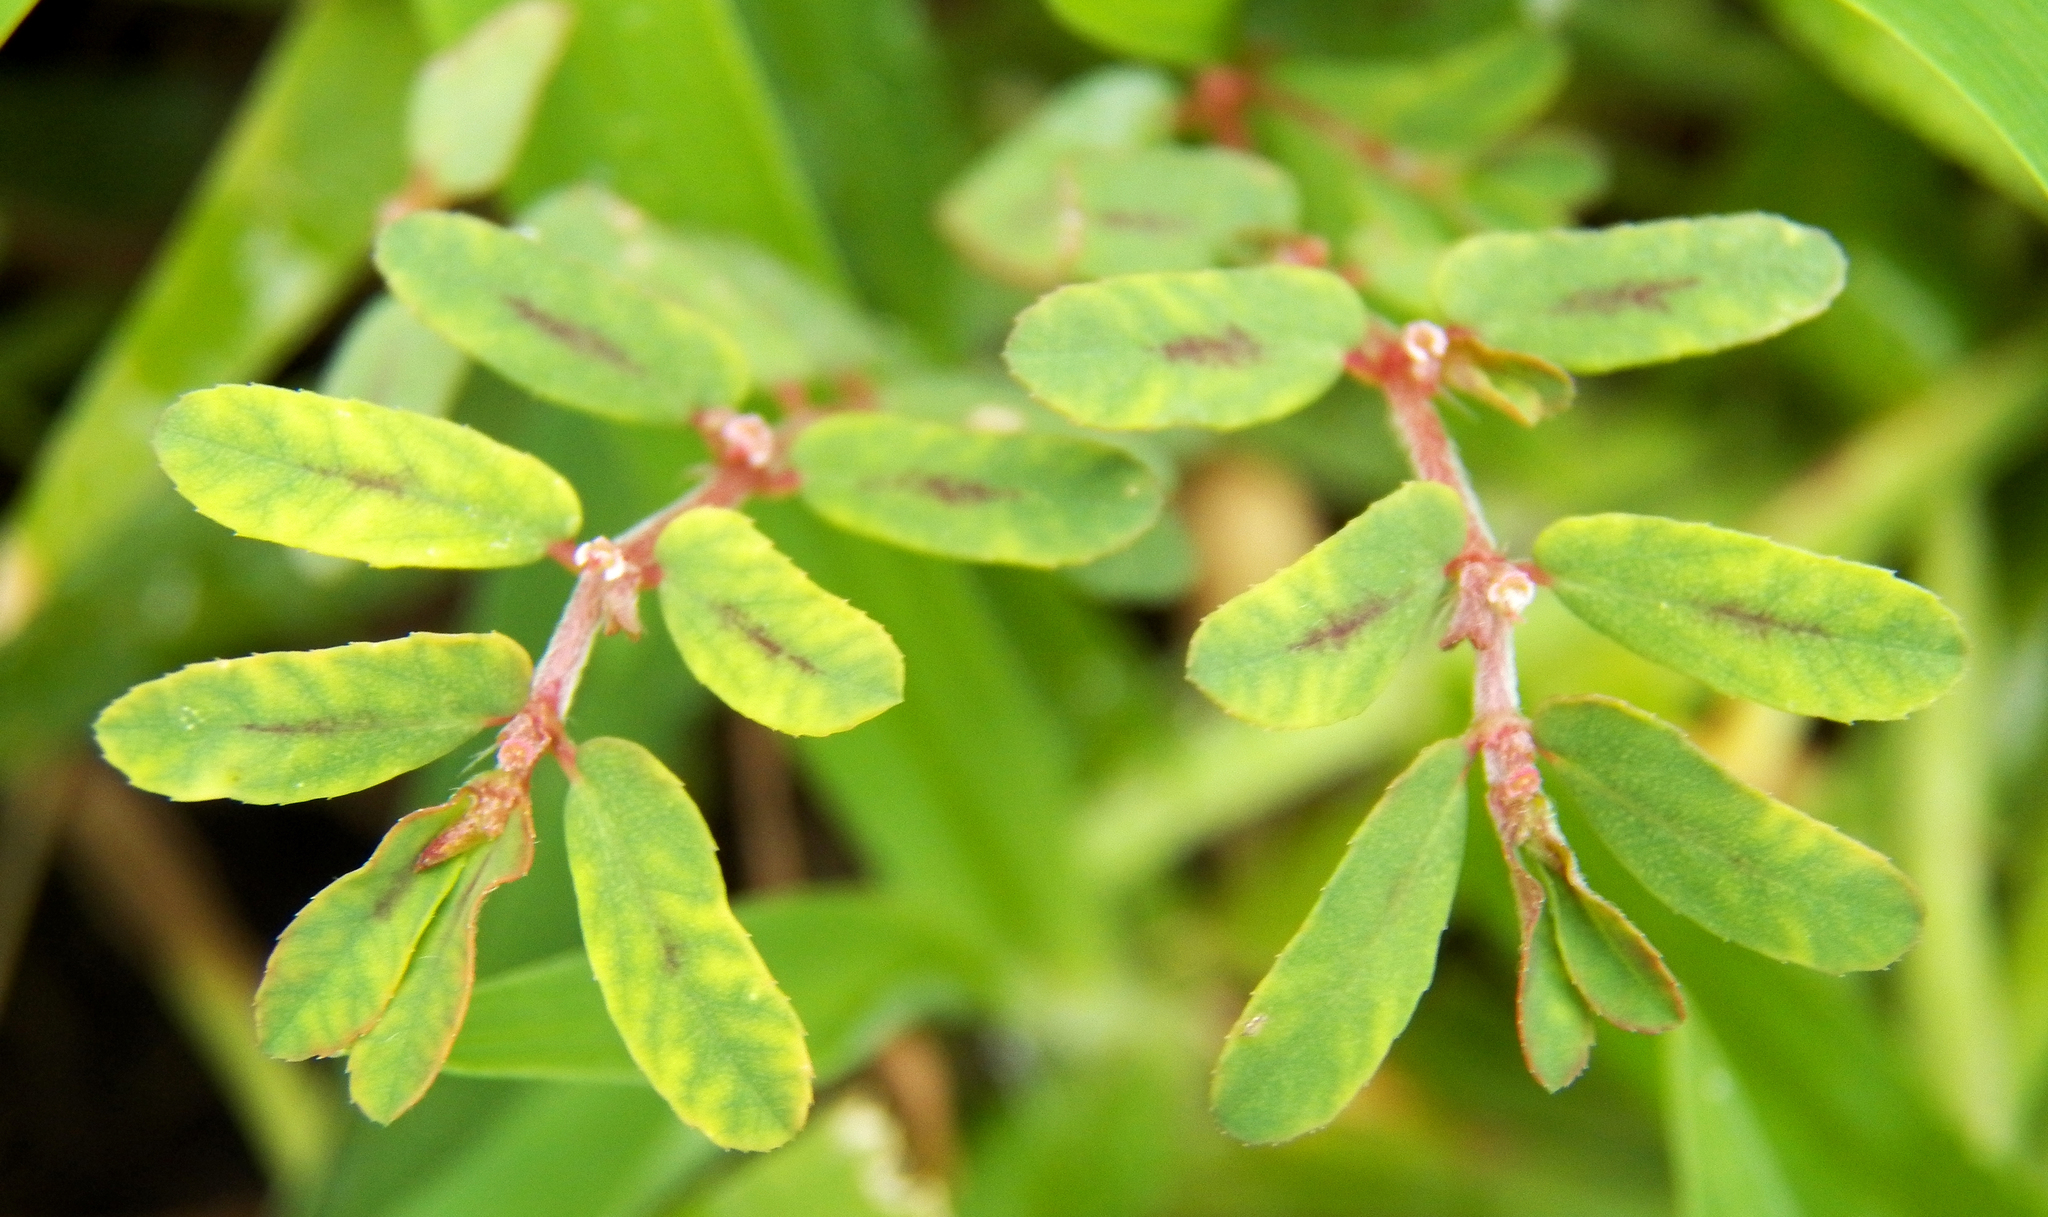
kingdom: Plantae
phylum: Tracheophyta
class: Magnoliopsida
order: Malpighiales
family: Euphorbiaceae
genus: Euphorbia
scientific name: Euphorbia maculata
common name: Spotted spurge
